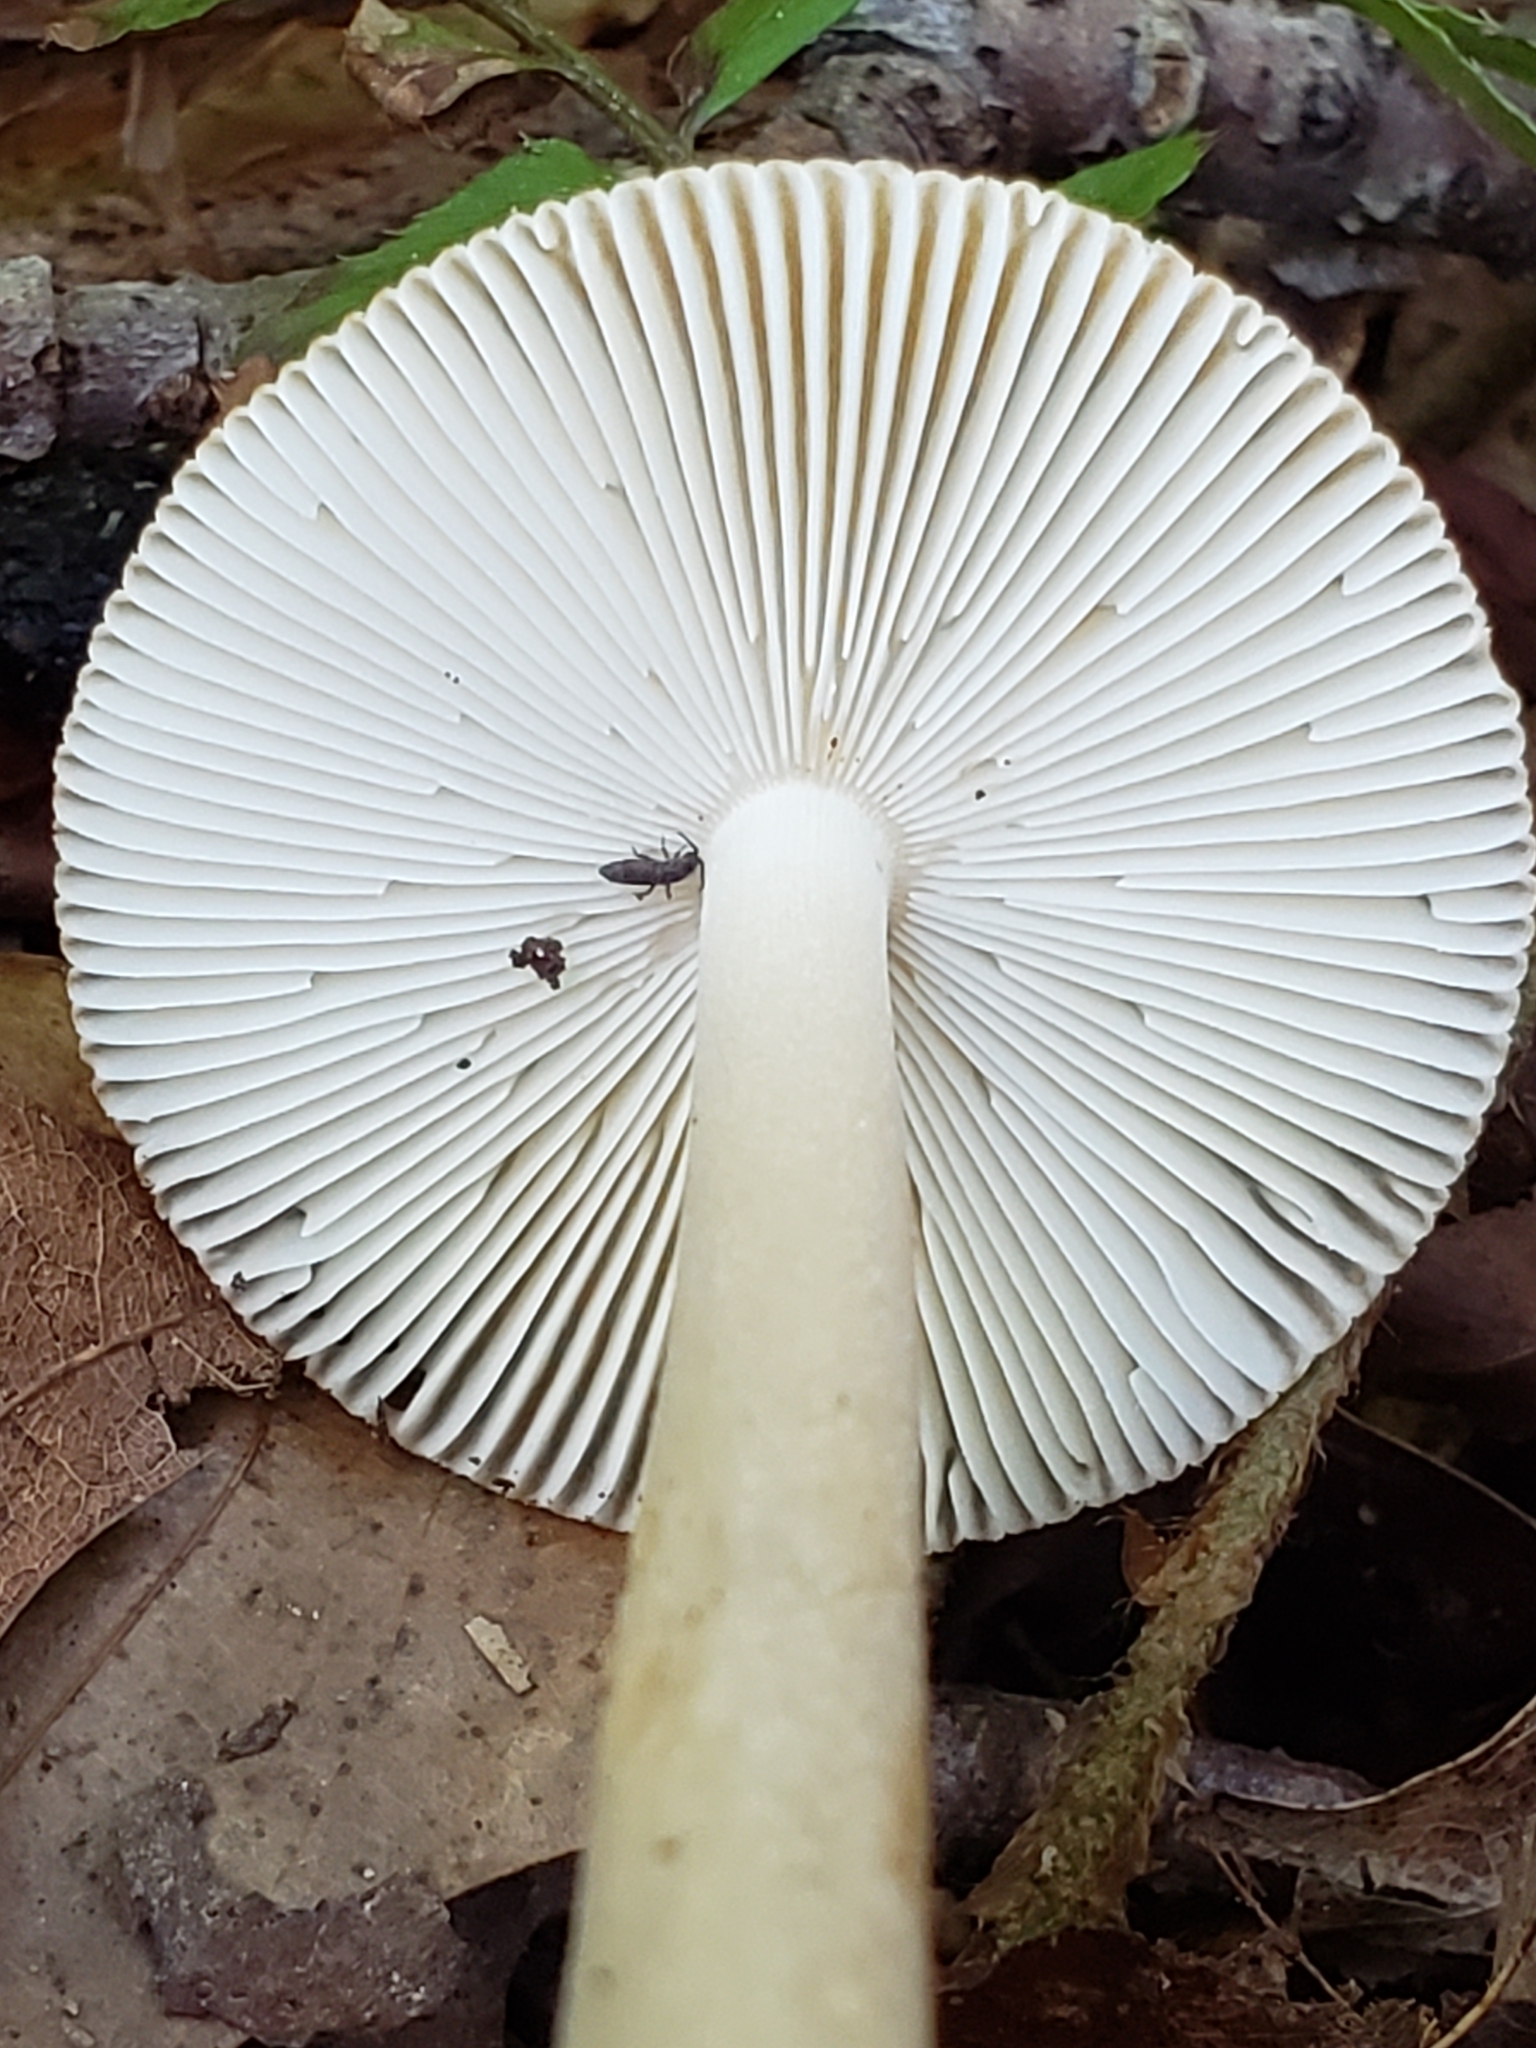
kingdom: Fungi
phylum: Basidiomycota
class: Agaricomycetes
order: Agaricales
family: Amanitaceae
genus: Amanita
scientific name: Amanita fulva
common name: Tawny grisette
